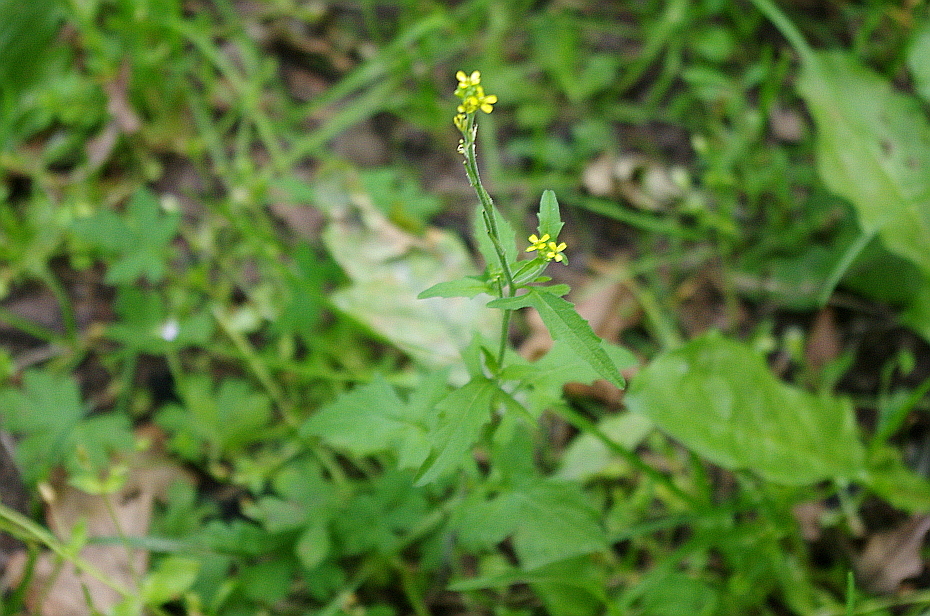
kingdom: Plantae
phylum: Tracheophyta
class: Magnoliopsida
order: Brassicales
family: Brassicaceae
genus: Sisymbrium
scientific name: Sisymbrium officinale
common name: Hedge mustard
